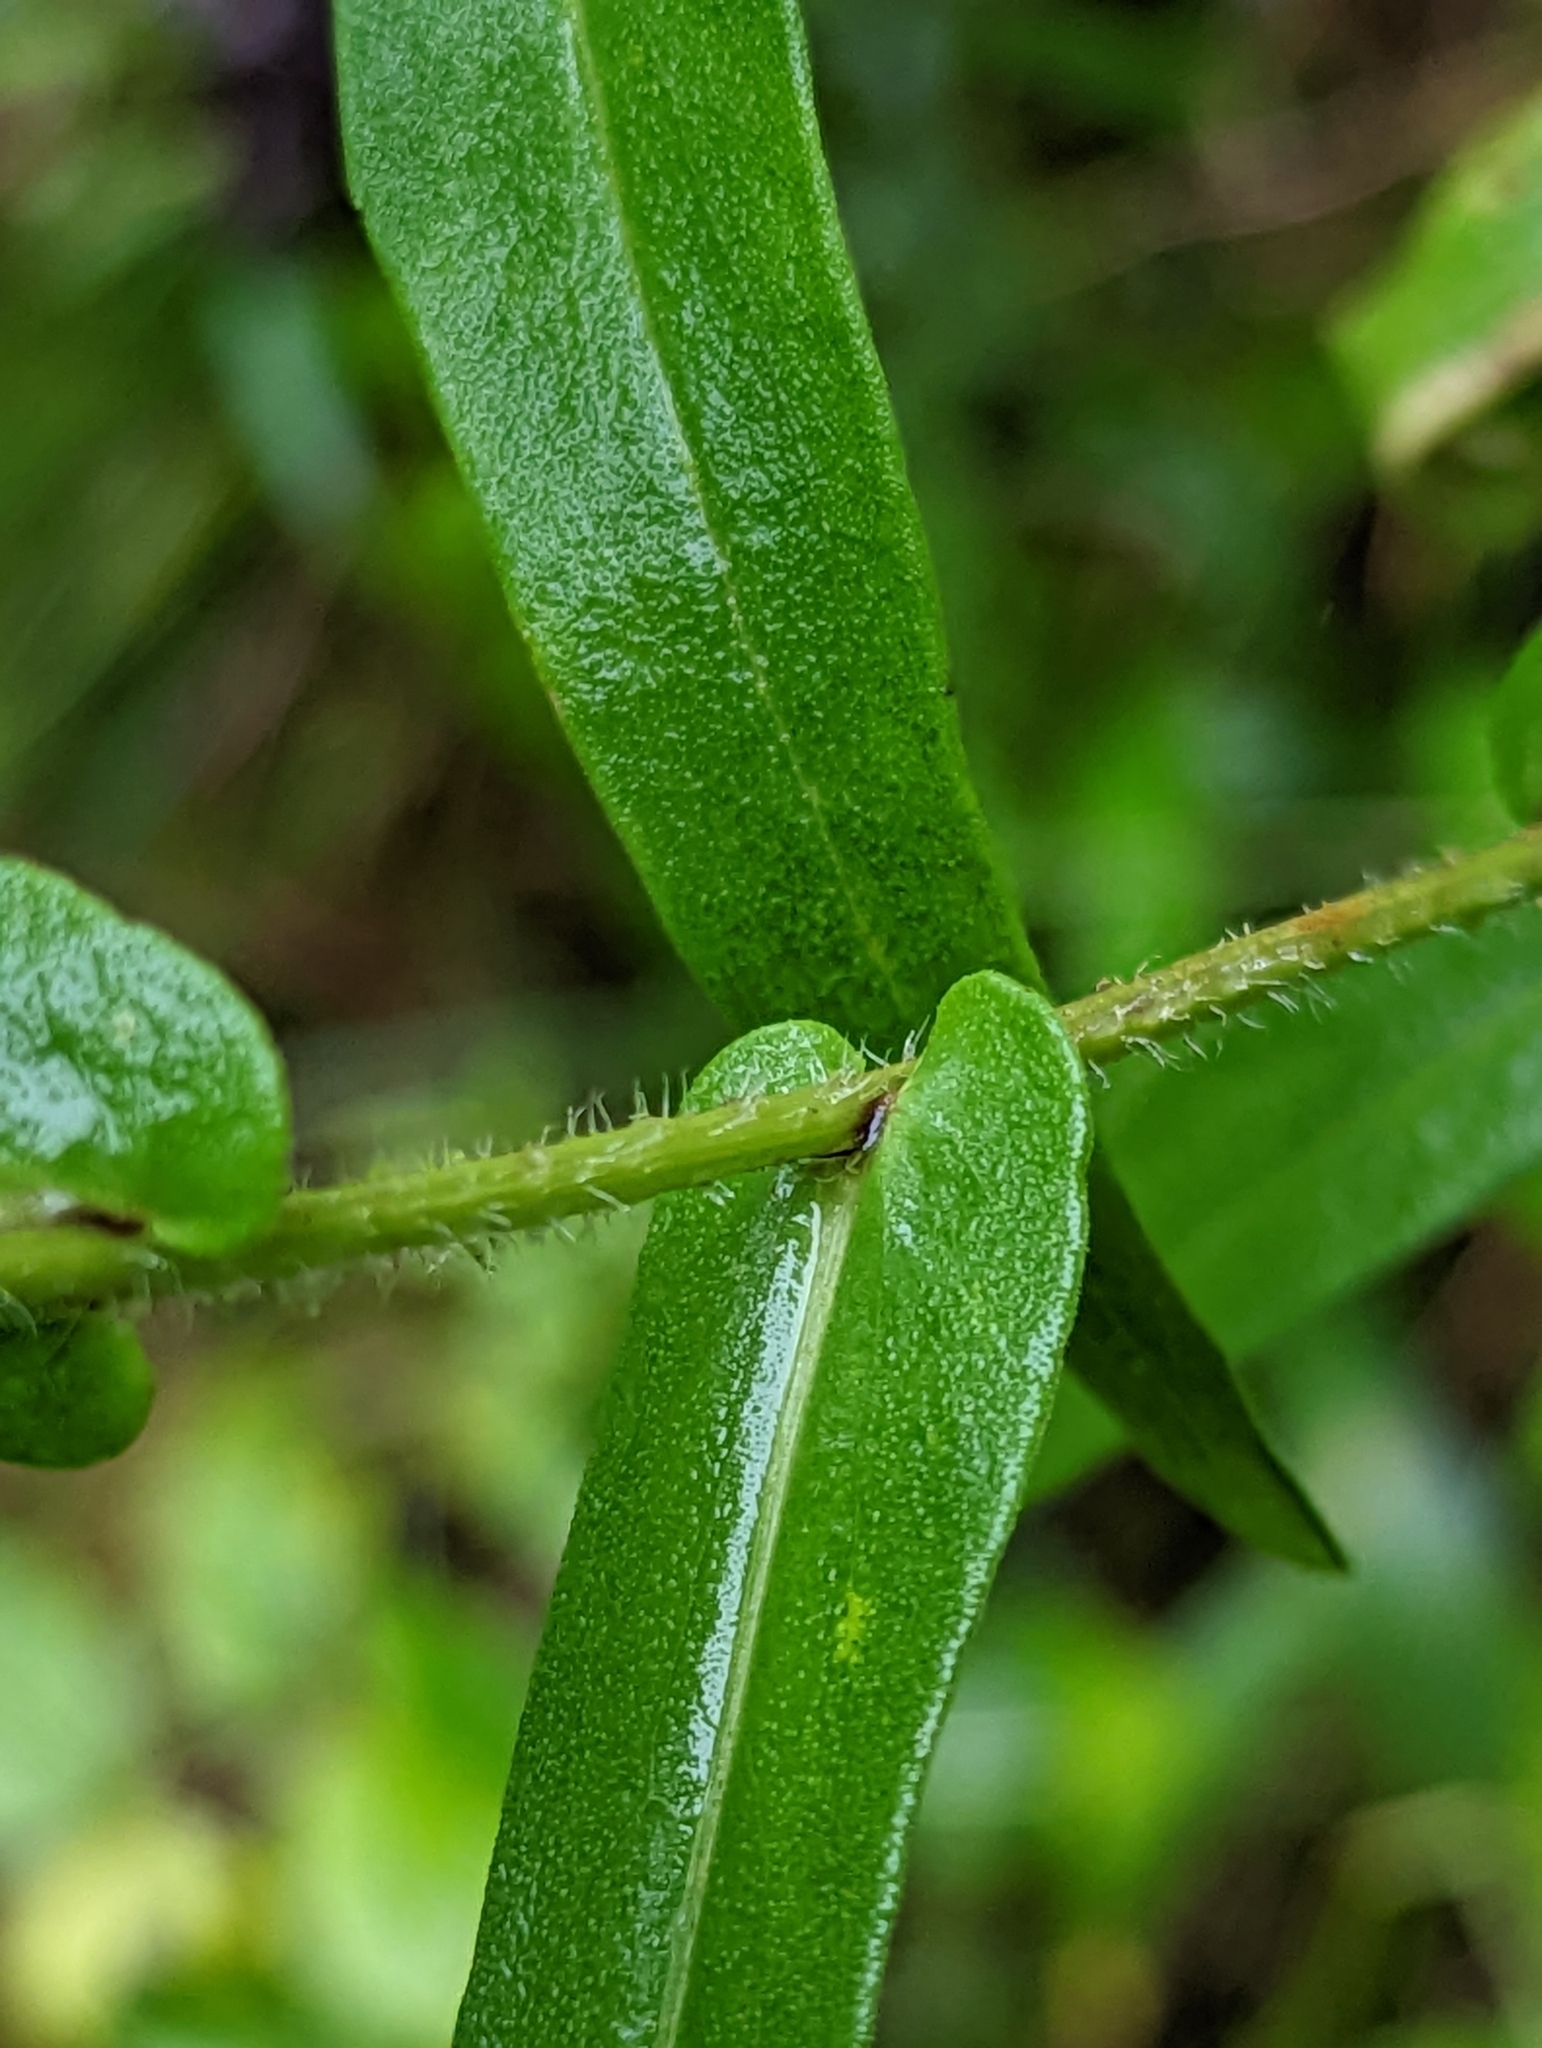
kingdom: Plantae
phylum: Tracheophyta
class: Magnoliopsida
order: Asterales
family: Asteraceae
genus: Symphyotrichum
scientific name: Symphyotrichum novi-belgii
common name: Michaelmas daisy
